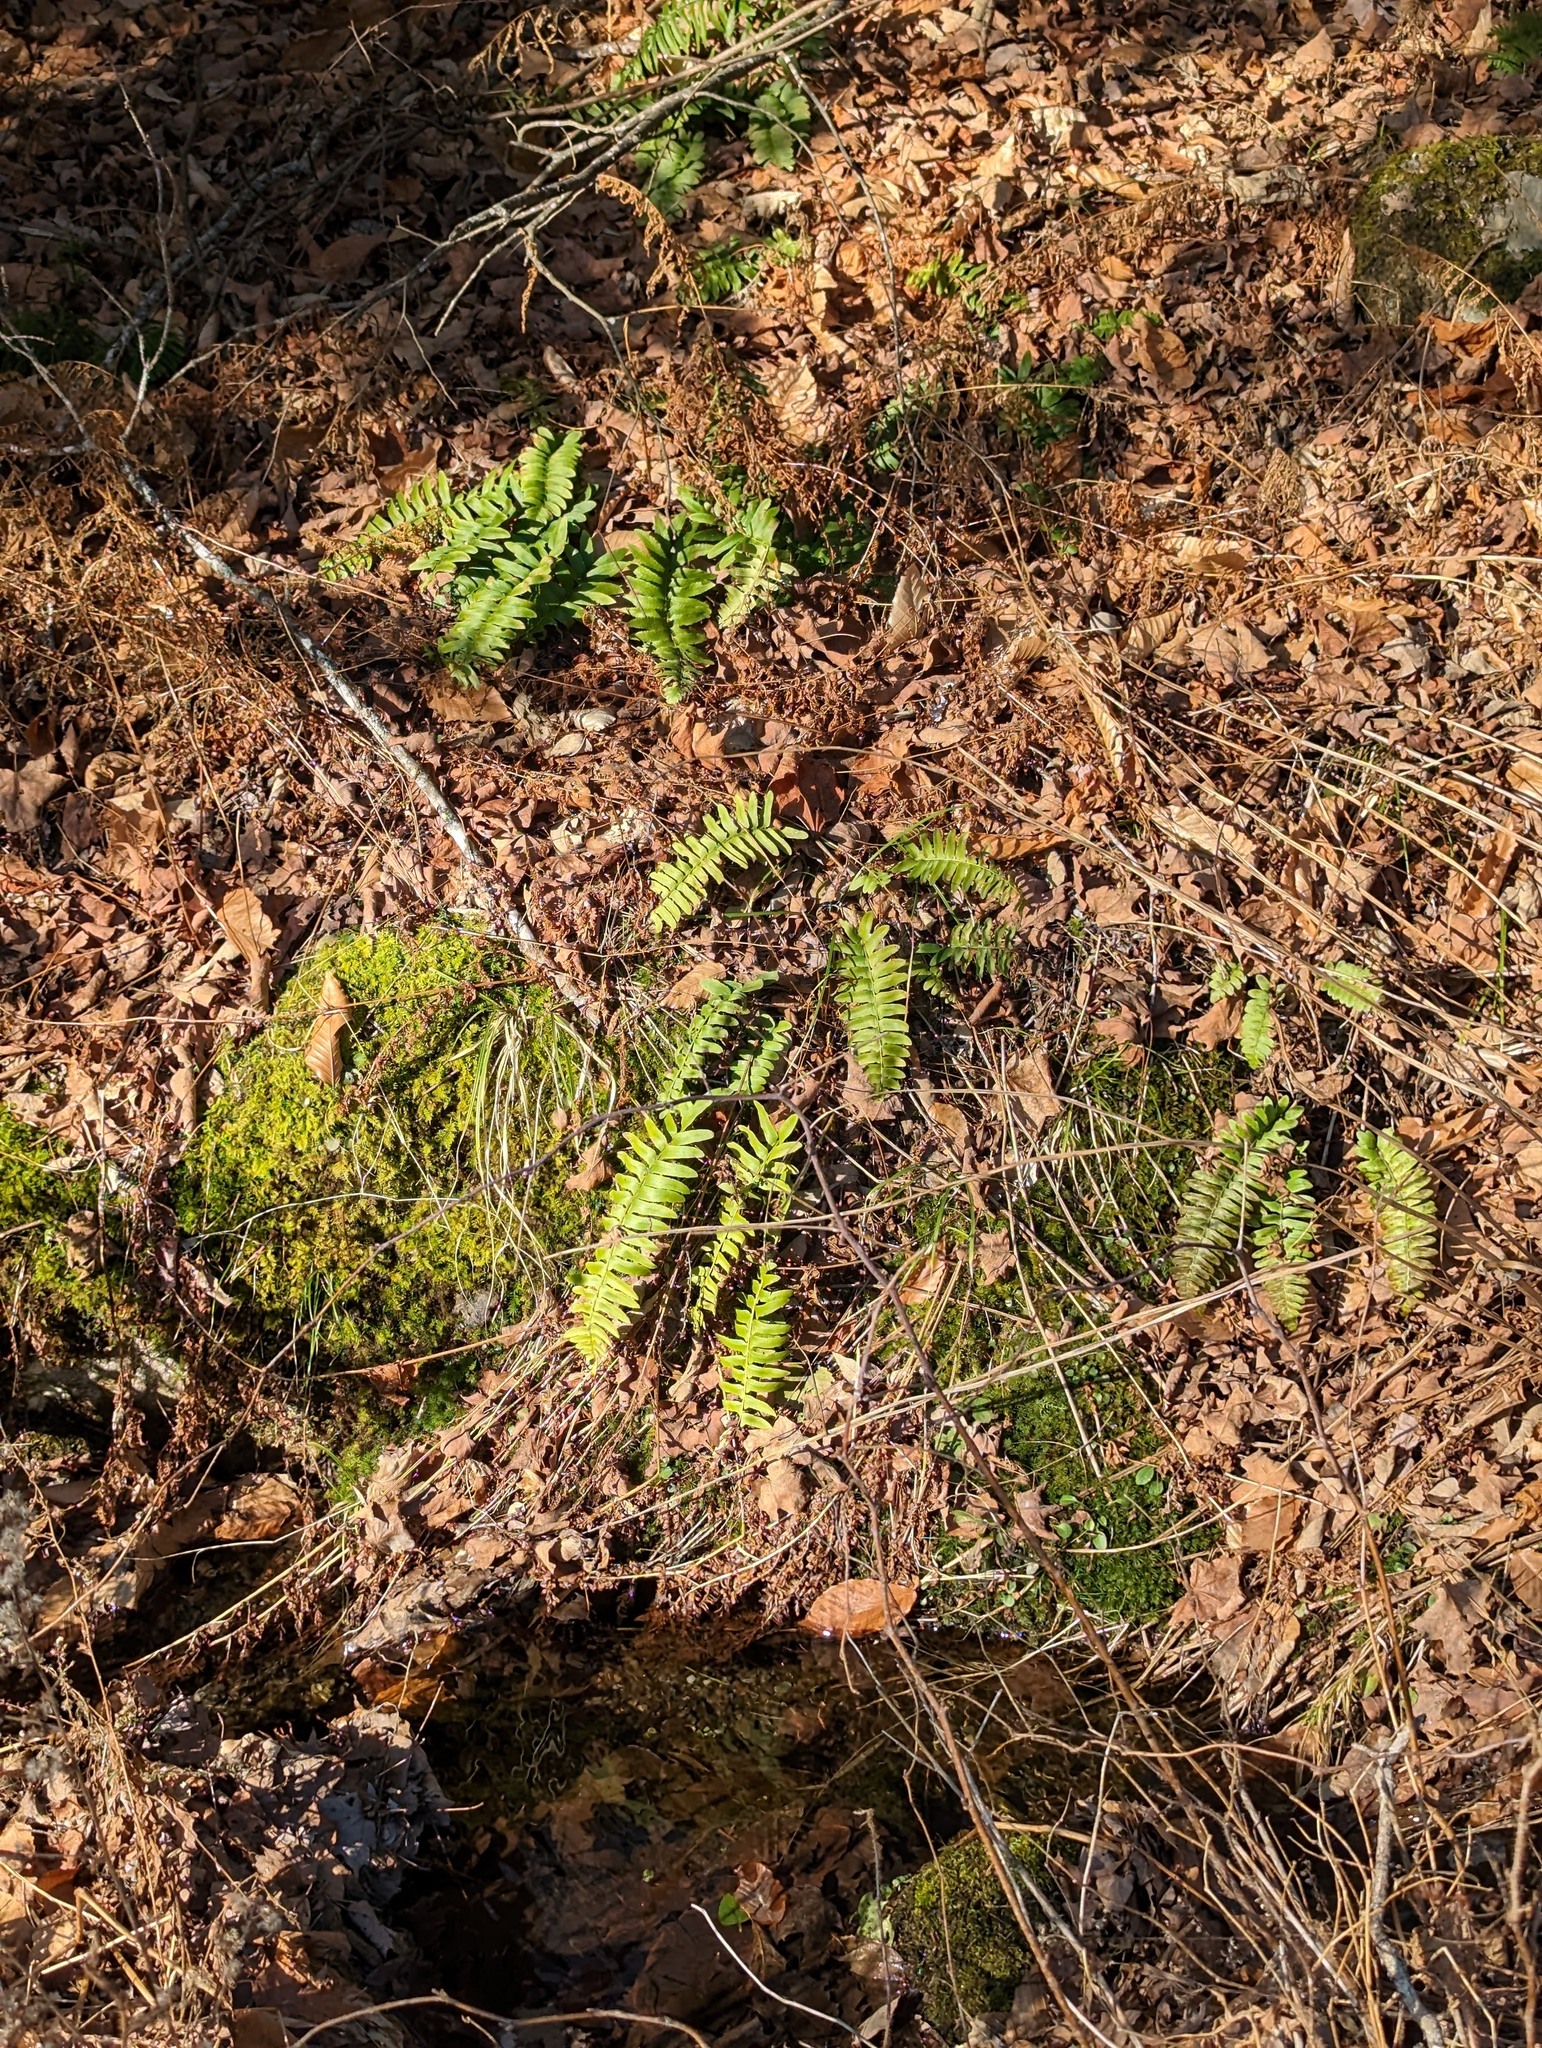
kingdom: Plantae
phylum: Tracheophyta
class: Polypodiopsida
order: Polypodiales
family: Dryopteridaceae
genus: Polystichum
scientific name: Polystichum acrostichoides
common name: Christmas fern
